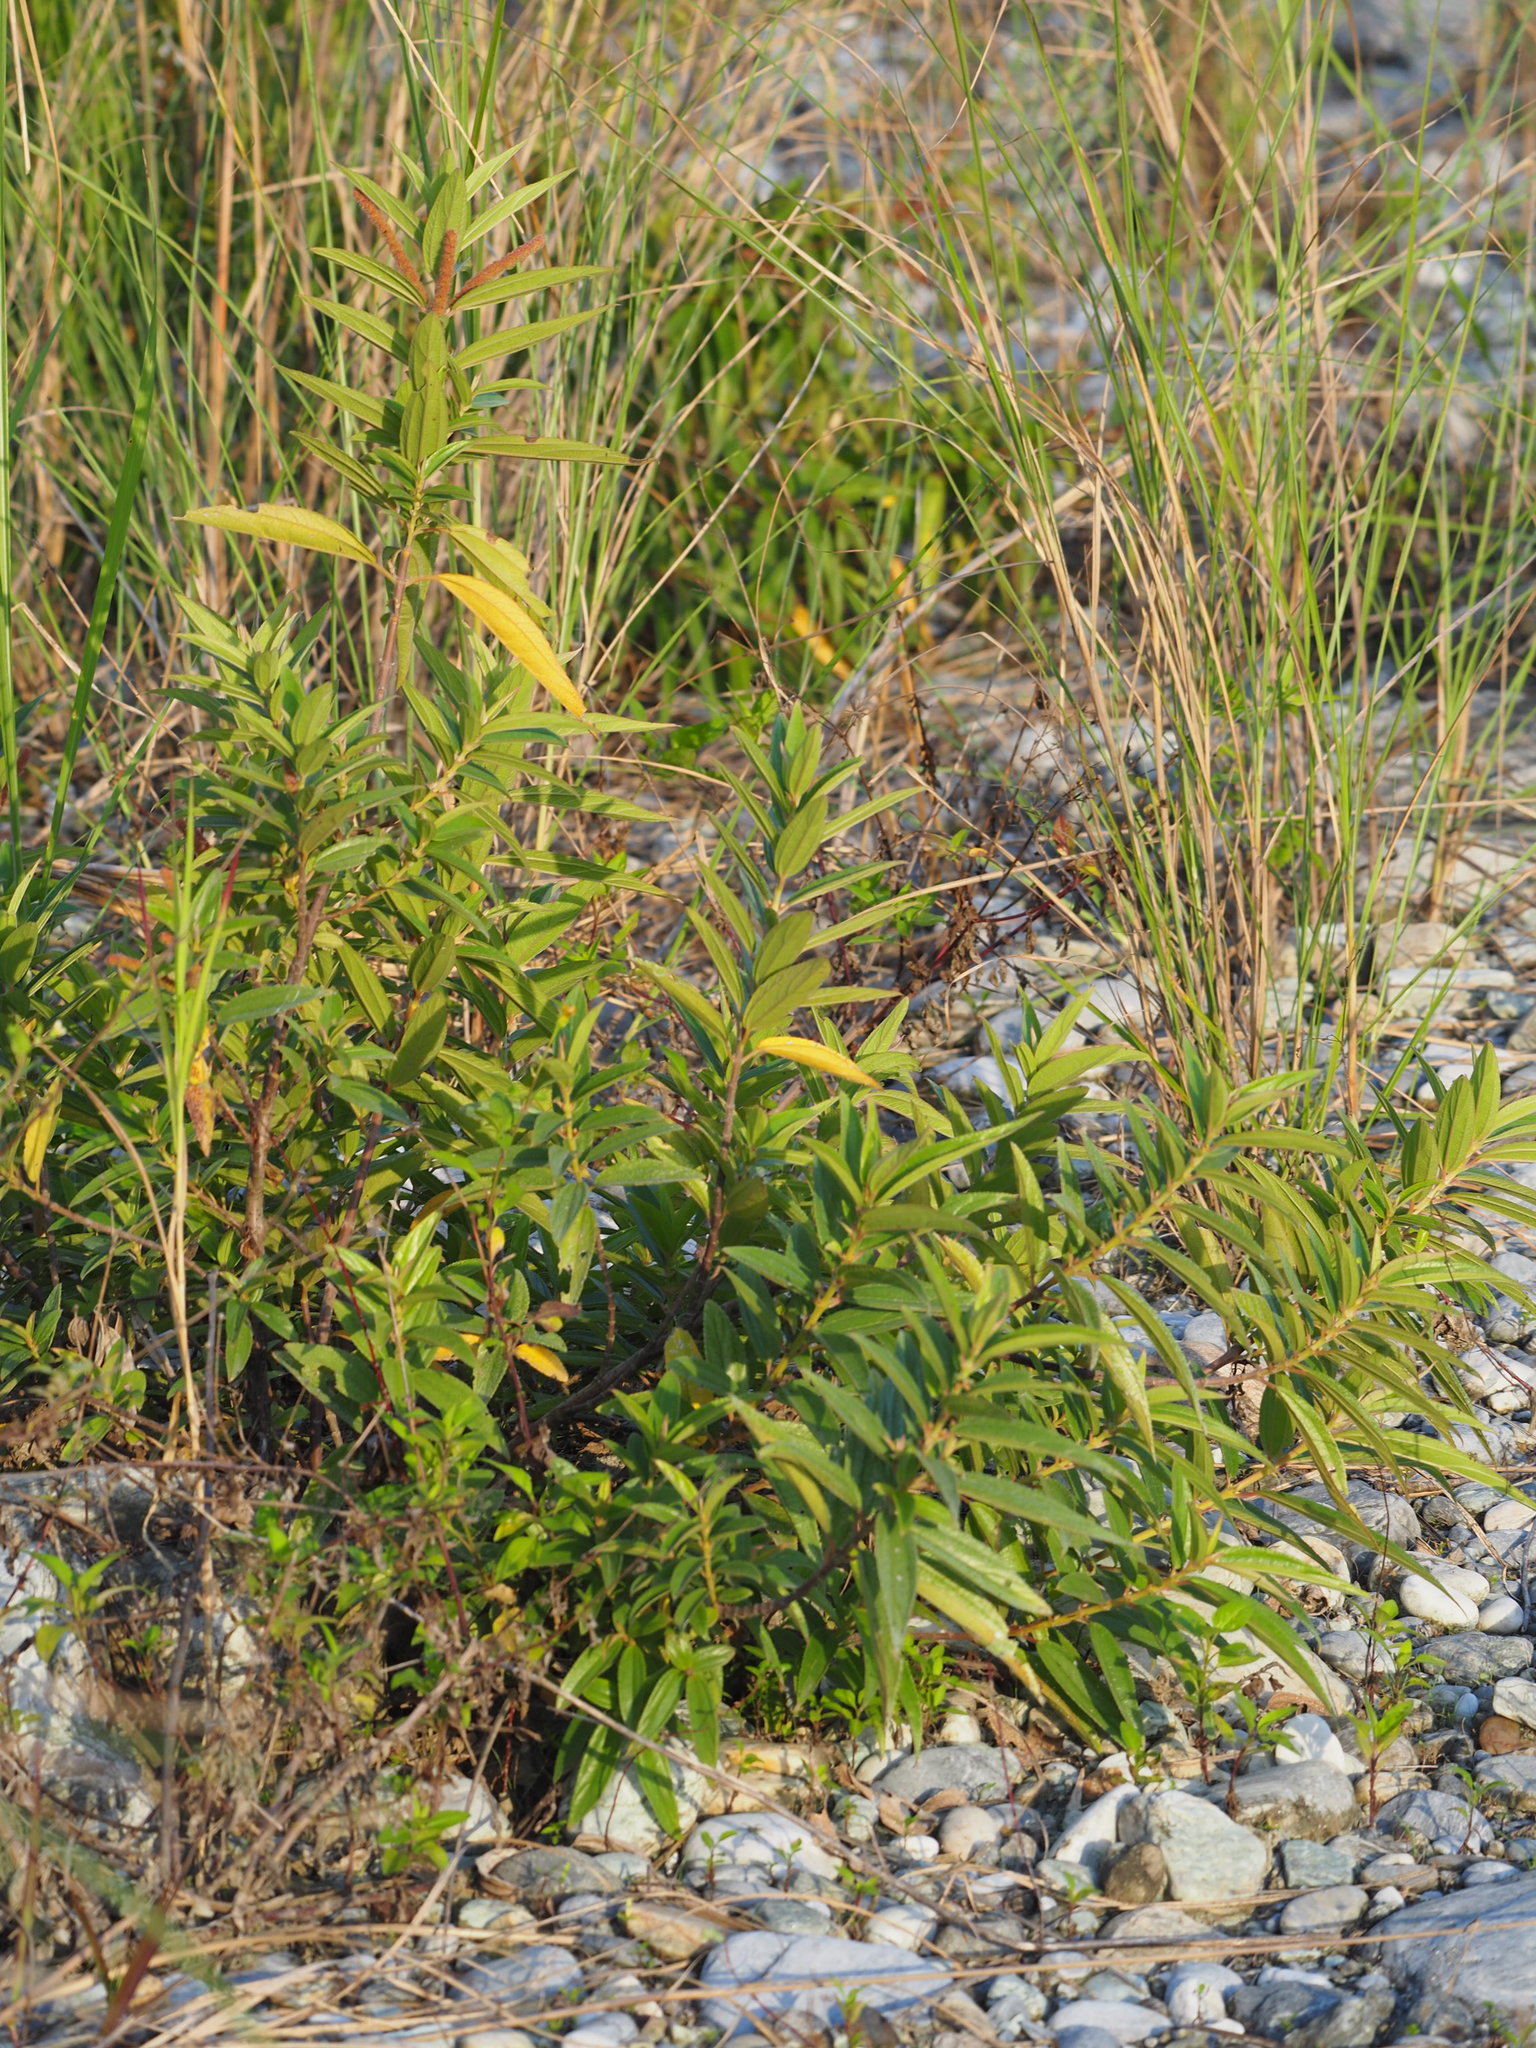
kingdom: Plantae
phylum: Tracheophyta
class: Magnoliopsida
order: Rosales
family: Urticaceae
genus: Boehmeria
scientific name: Boehmeria densiflora
